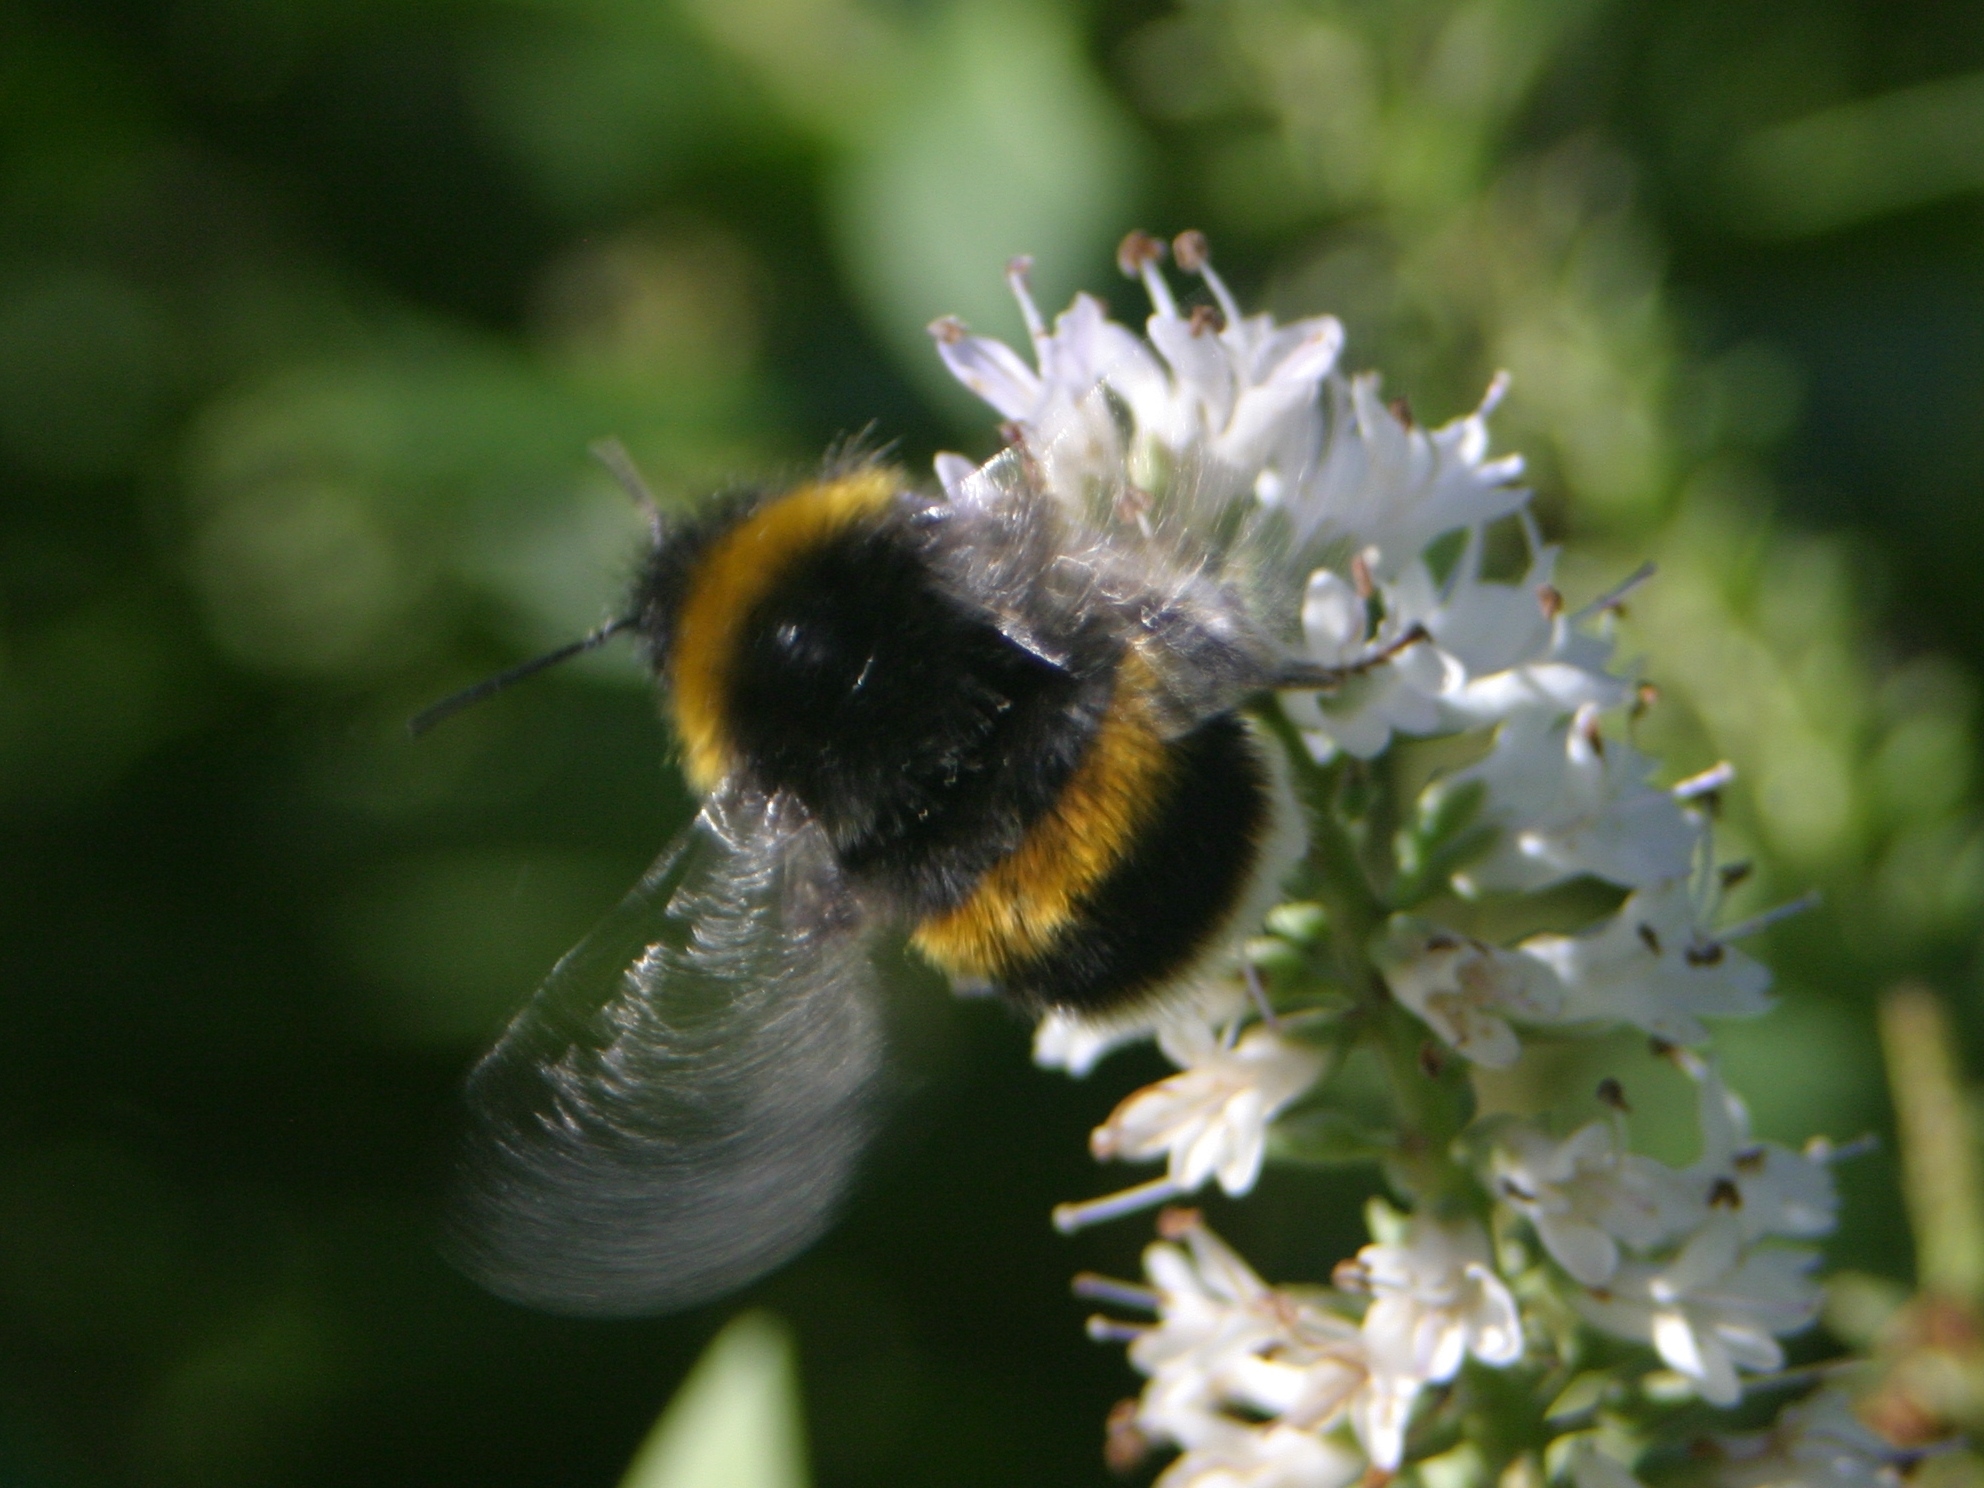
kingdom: Animalia
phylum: Arthropoda
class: Insecta
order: Hymenoptera
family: Apidae
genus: Bombus
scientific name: Bombus terrestris
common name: Buff-tailed bumblebee
